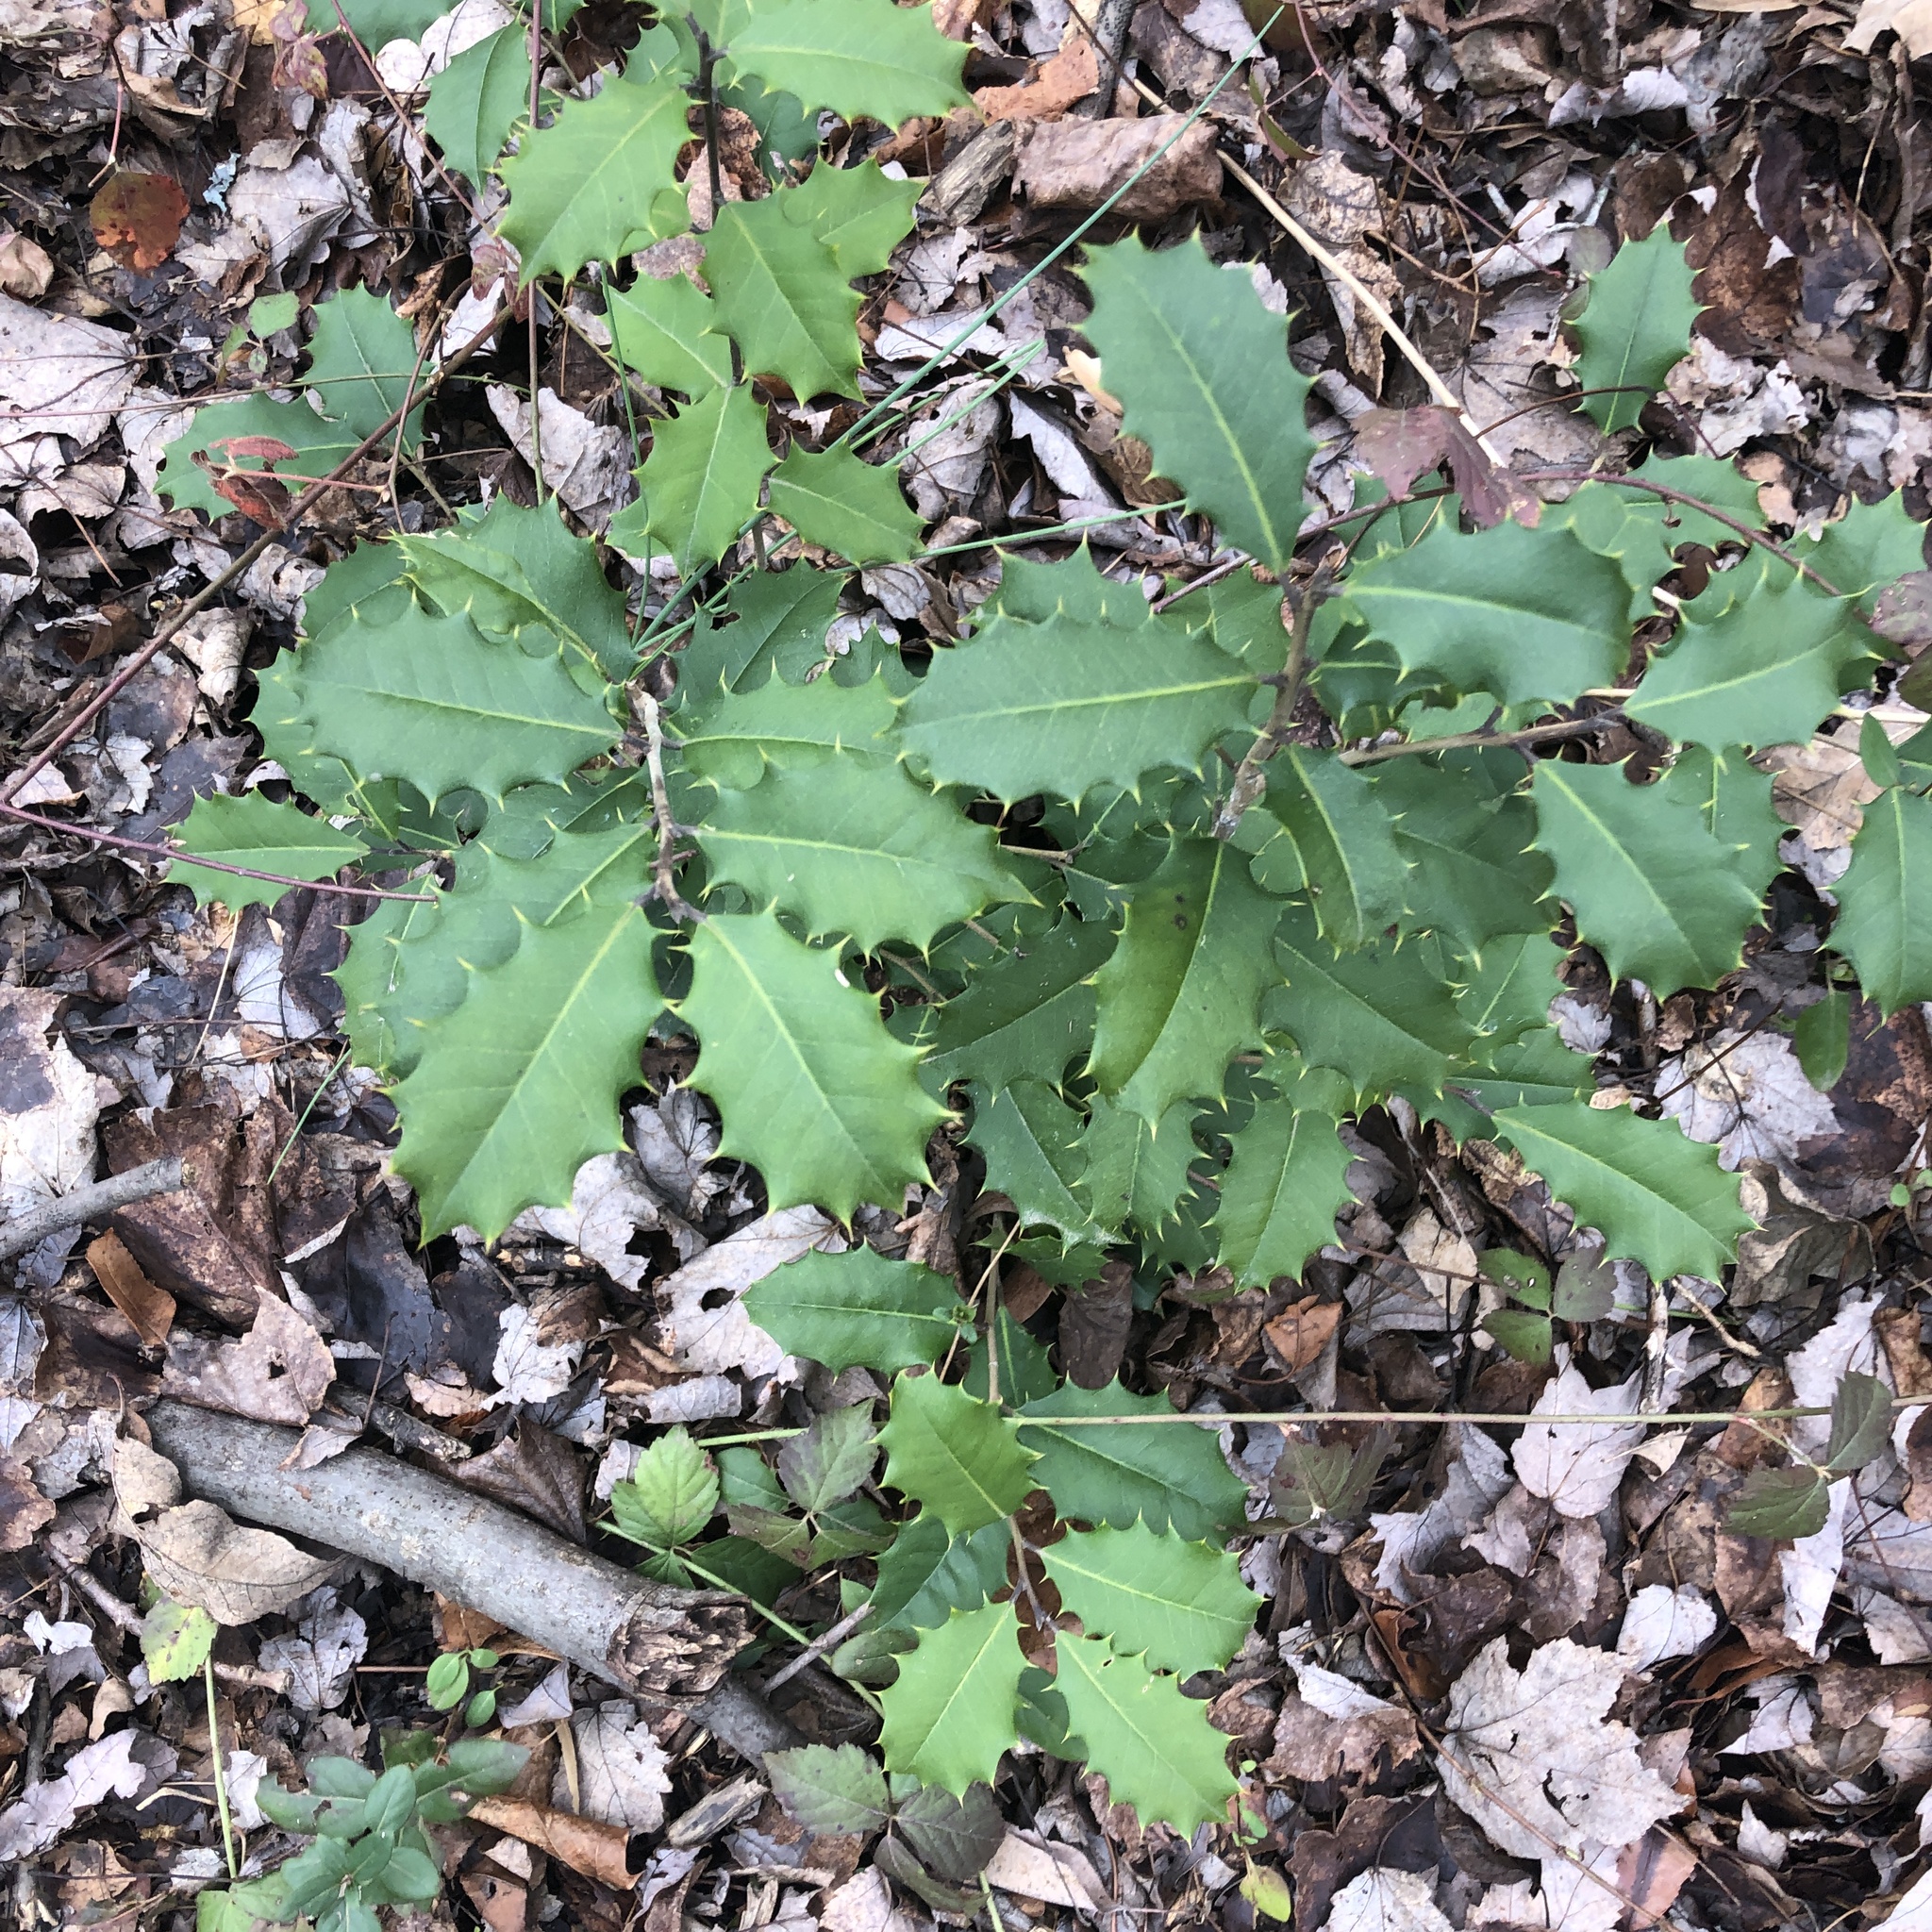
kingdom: Plantae
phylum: Tracheophyta
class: Magnoliopsida
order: Aquifoliales
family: Aquifoliaceae
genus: Ilex
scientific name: Ilex opaca
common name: American holly
